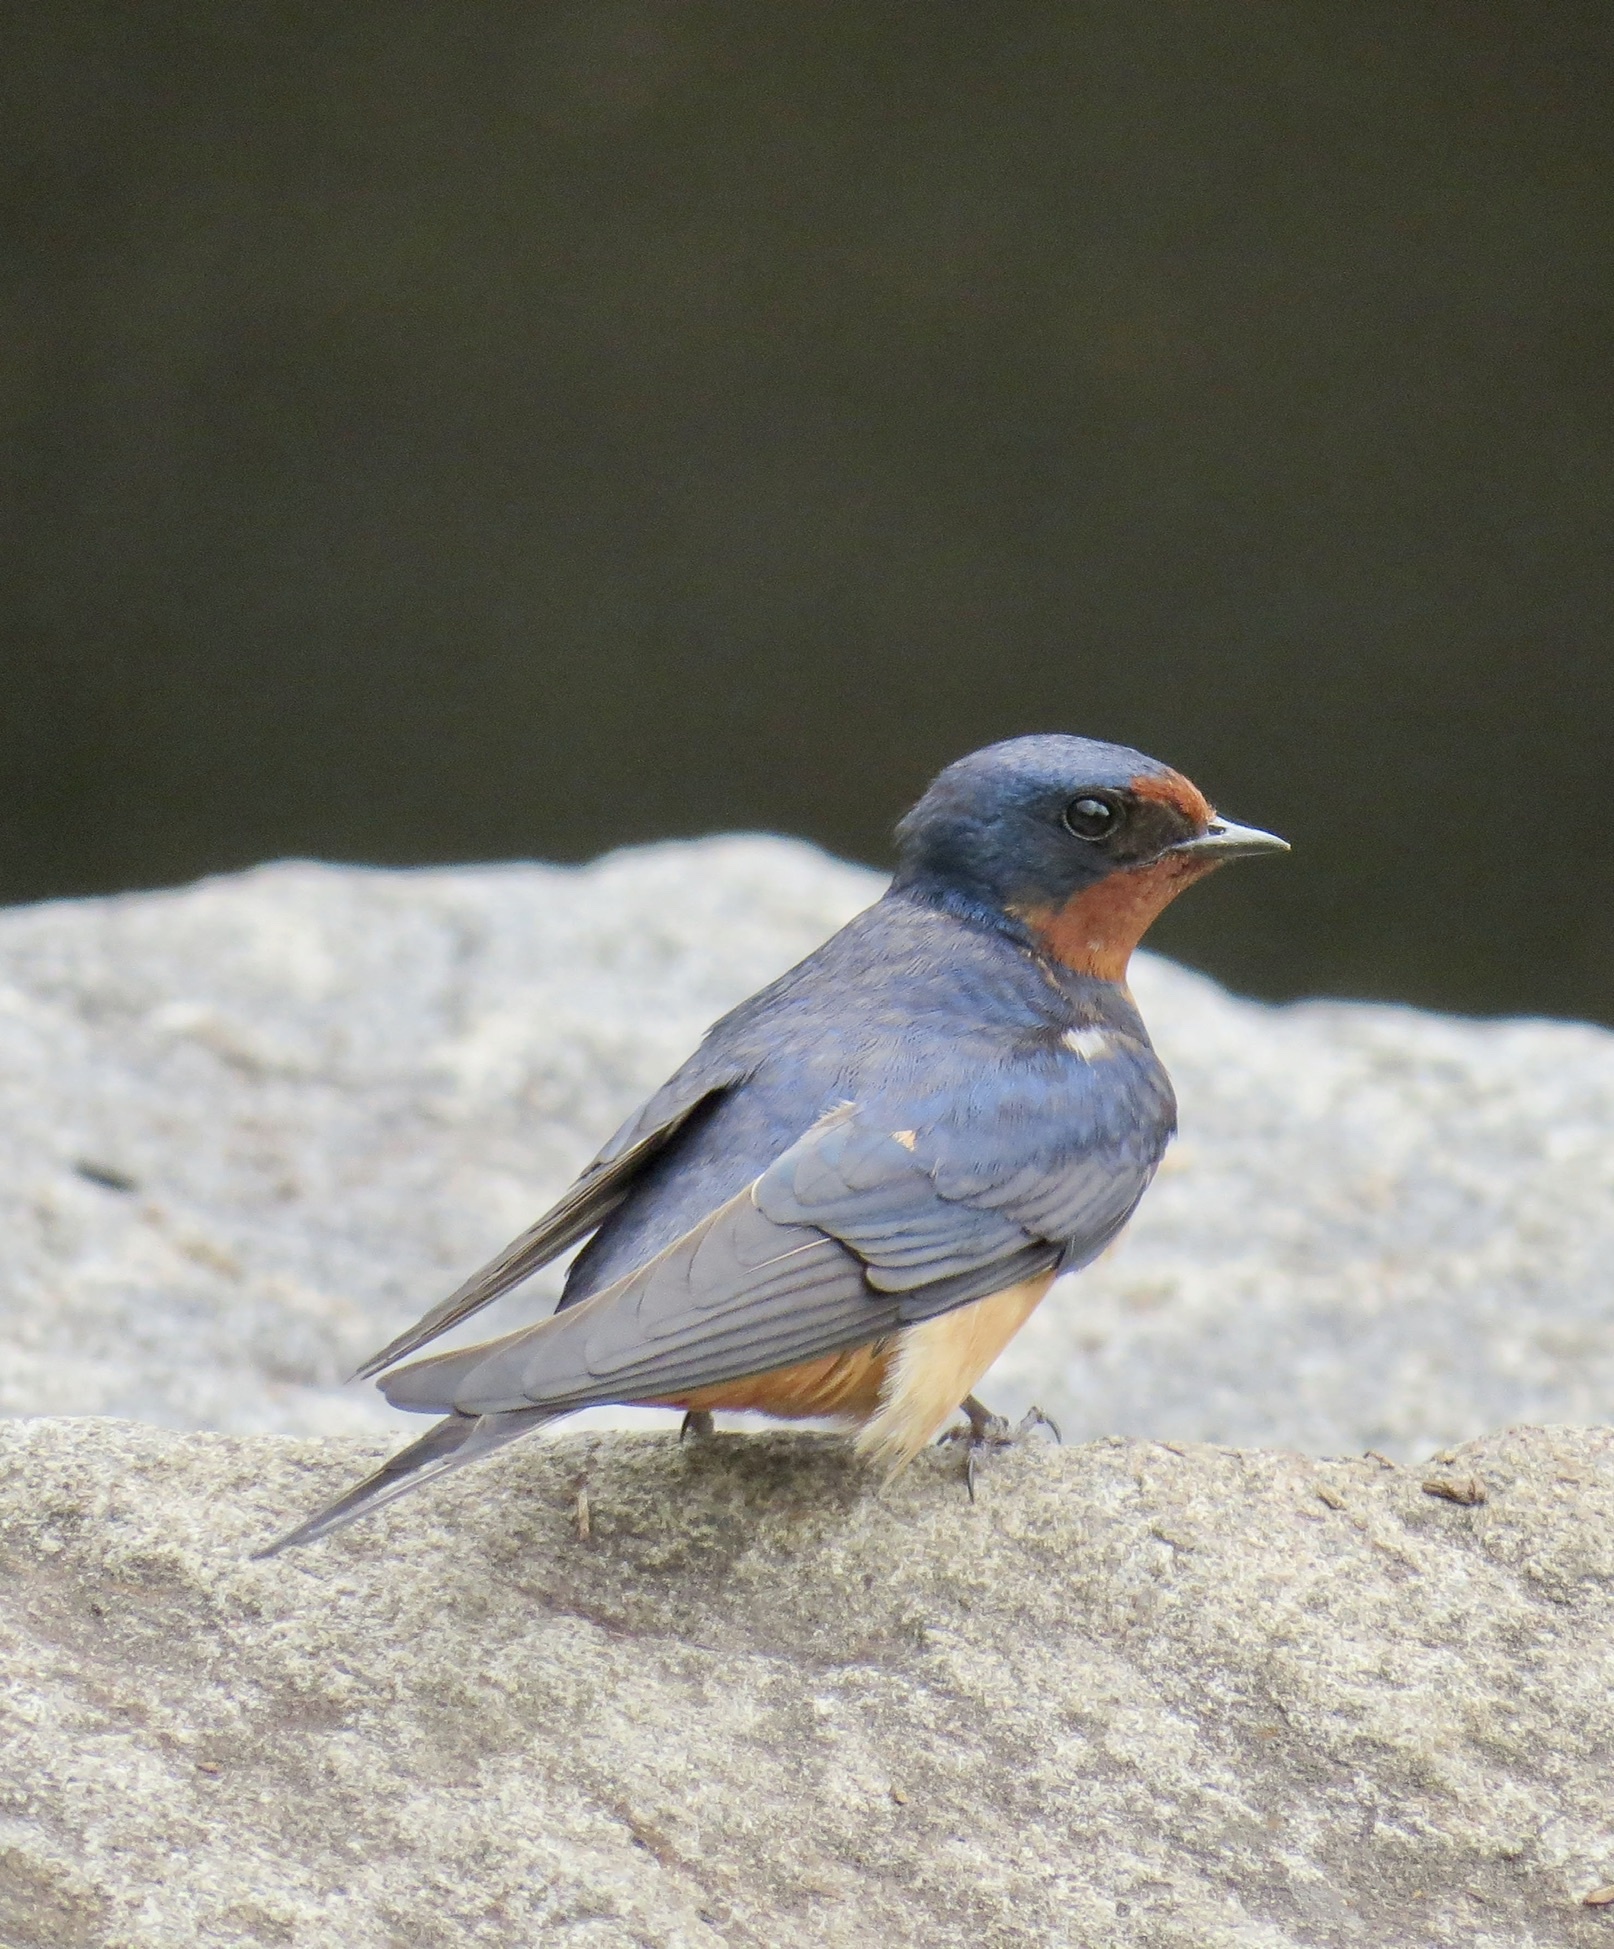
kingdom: Animalia
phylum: Chordata
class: Aves
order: Passeriformes
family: Hirundinidae
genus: Hirundo
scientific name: Hirundo rustica
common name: Barn swallow
